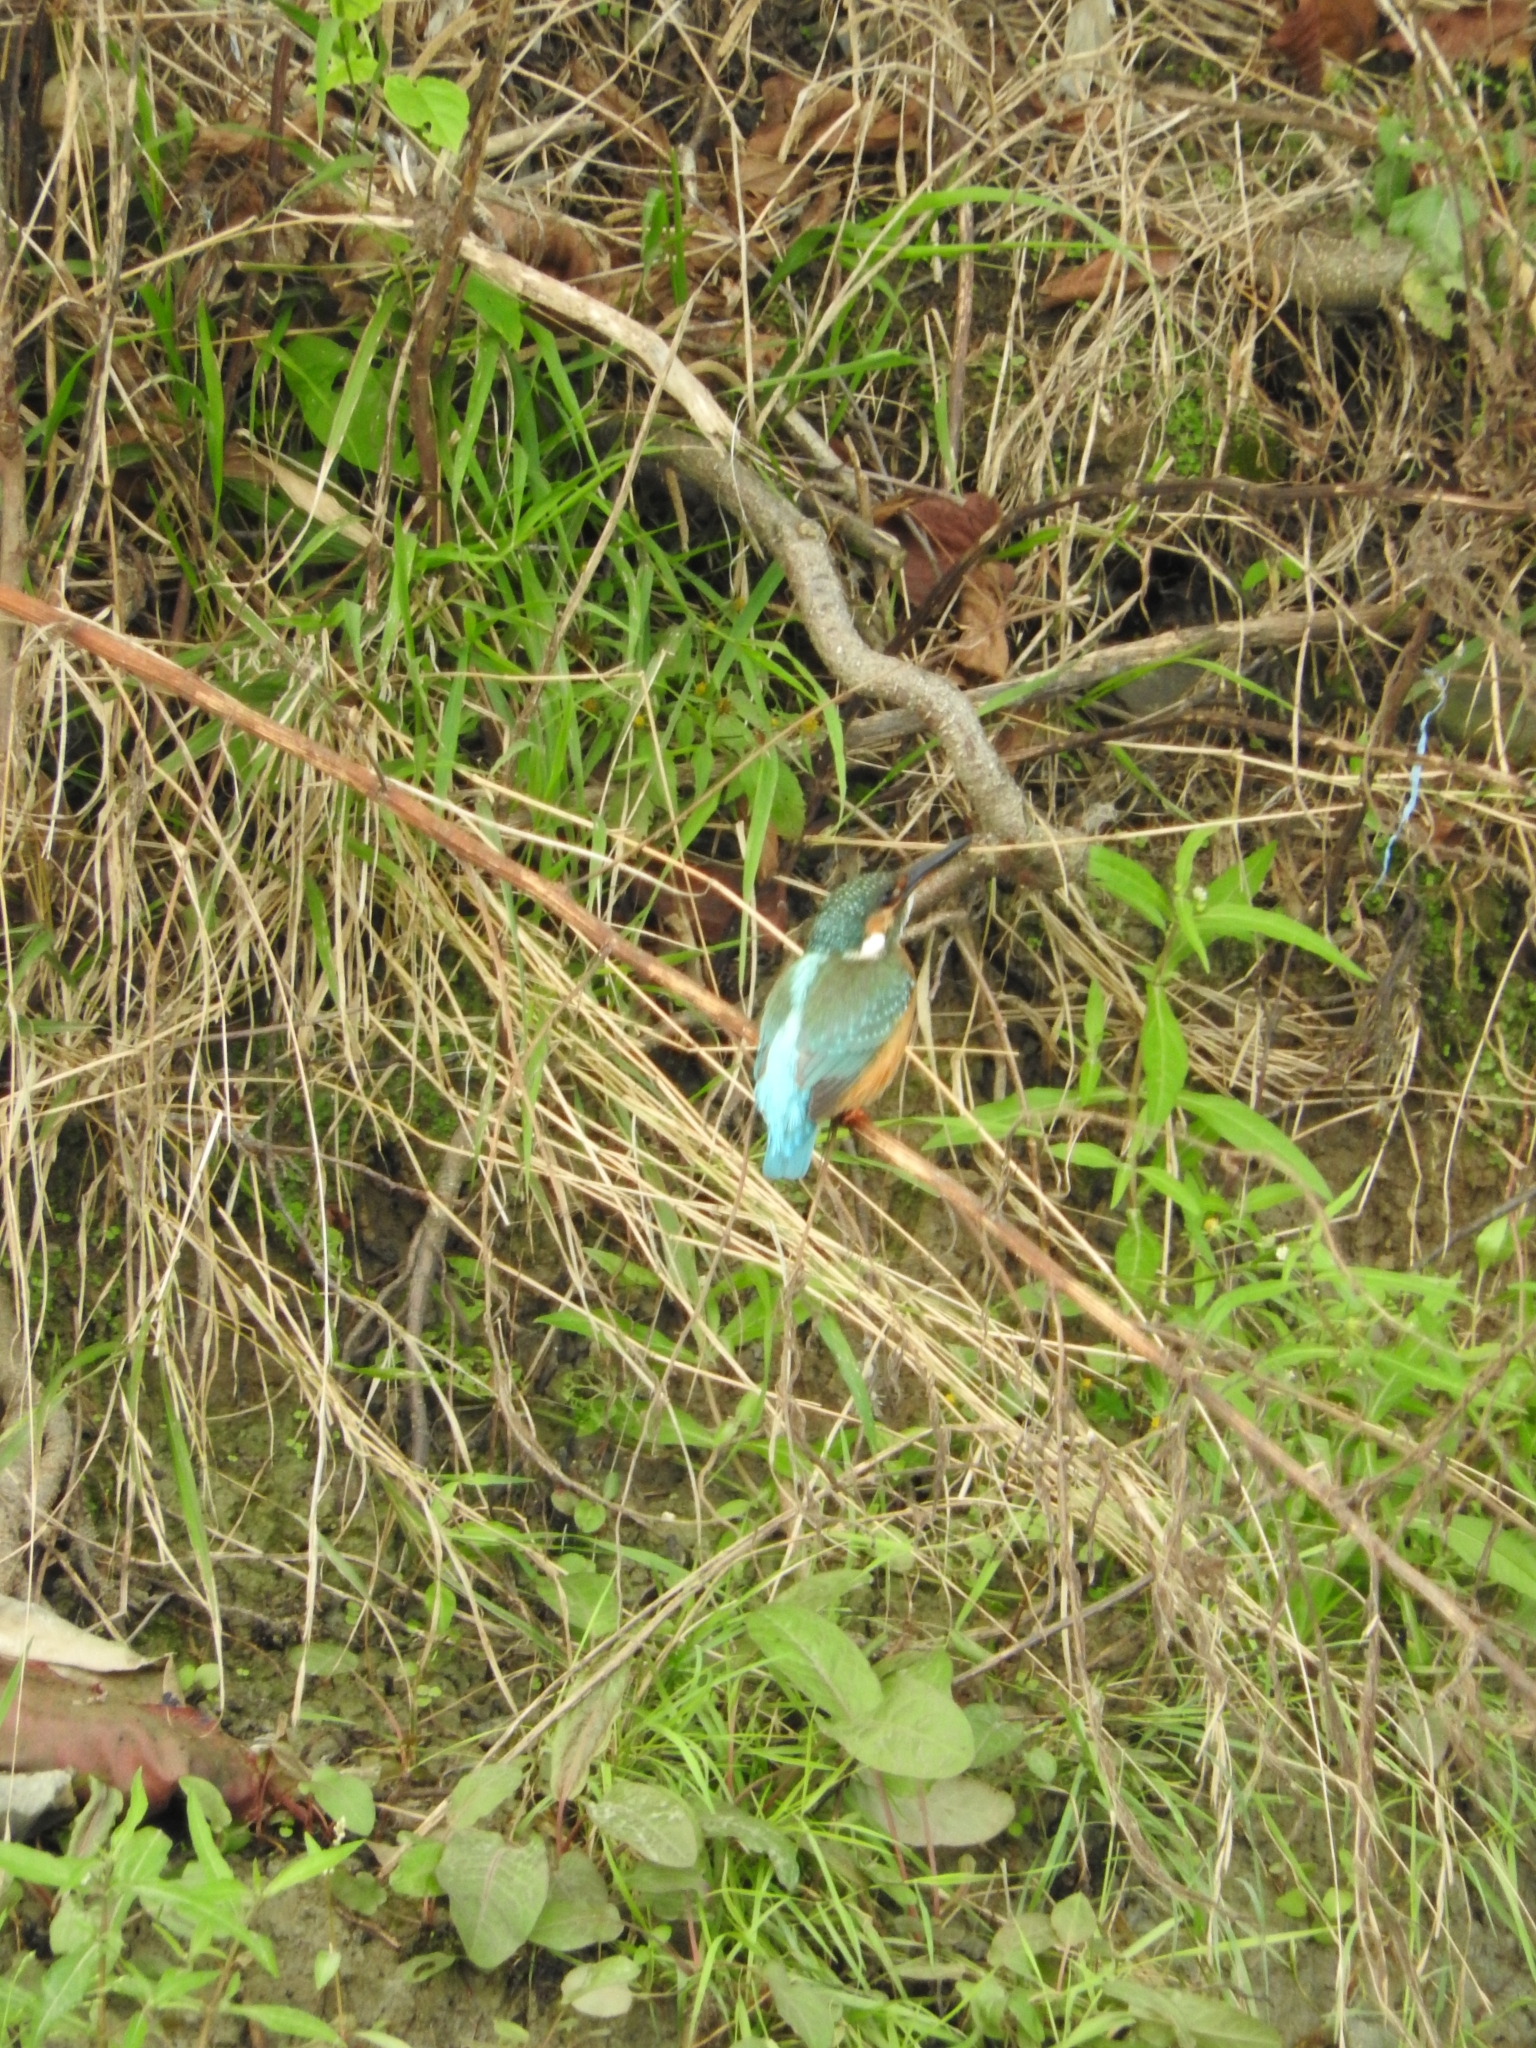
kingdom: Animalia
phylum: Chordata
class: Aves
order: Coraciiformes
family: Alcedinidae
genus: Alcedo
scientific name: Alcedo atthis
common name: Common kingfisher
